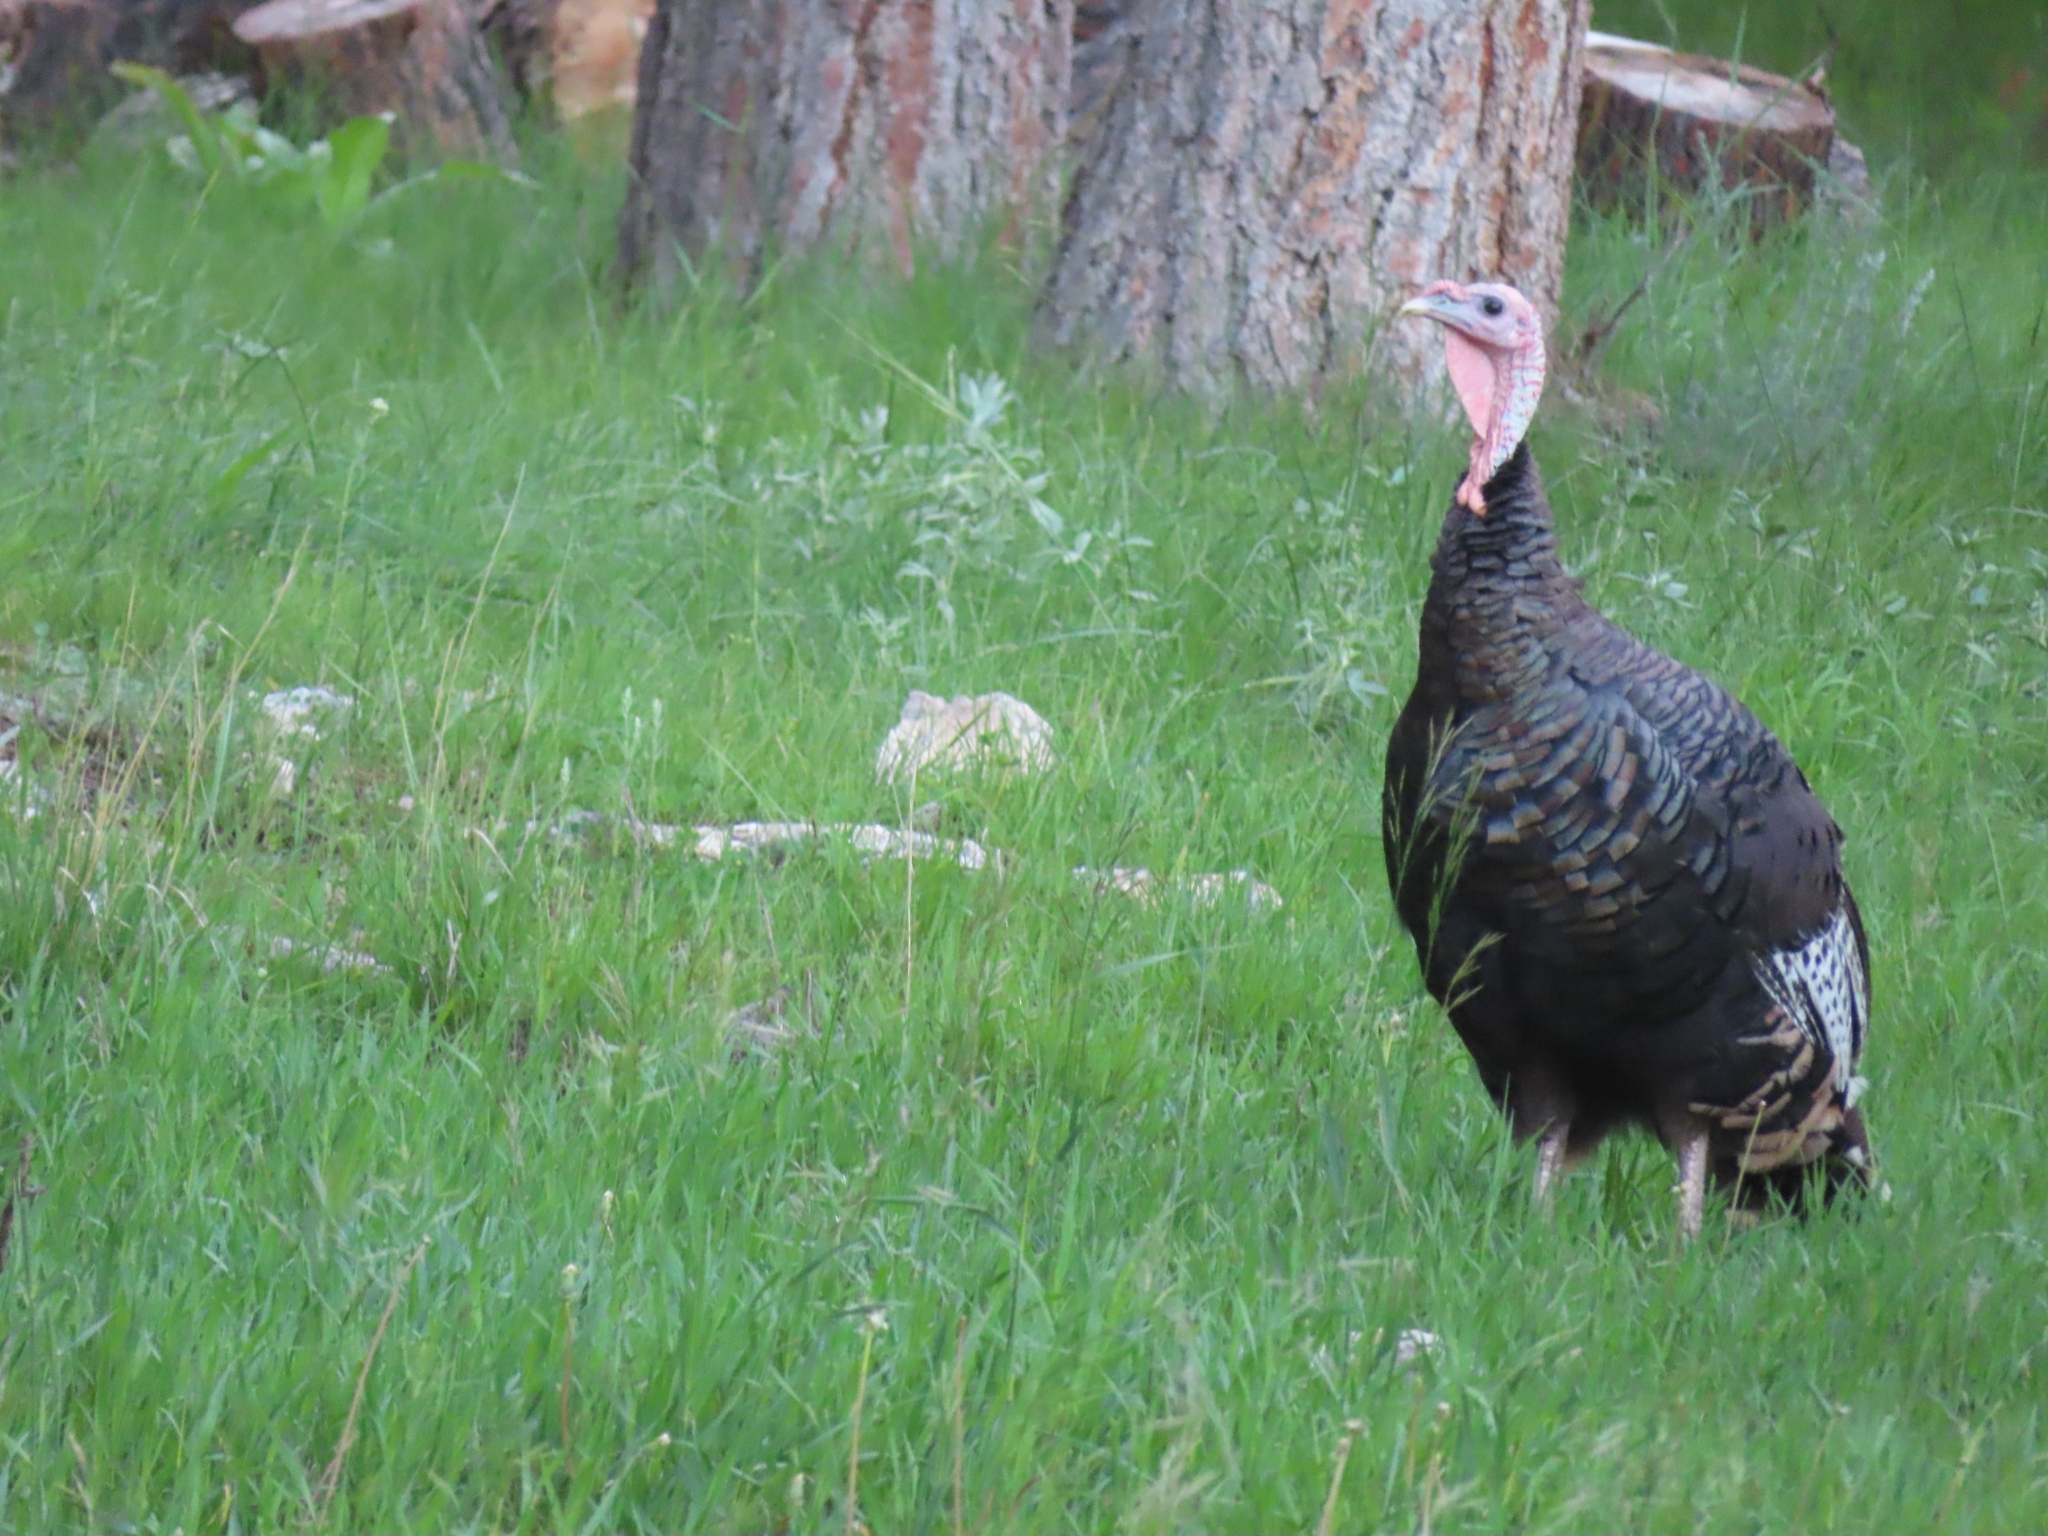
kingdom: Animalia
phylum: Chordata
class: Aves
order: Galliformes
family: Phasianidae
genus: Meleagris
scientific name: Meleagris gallopavo
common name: Wild turkey
